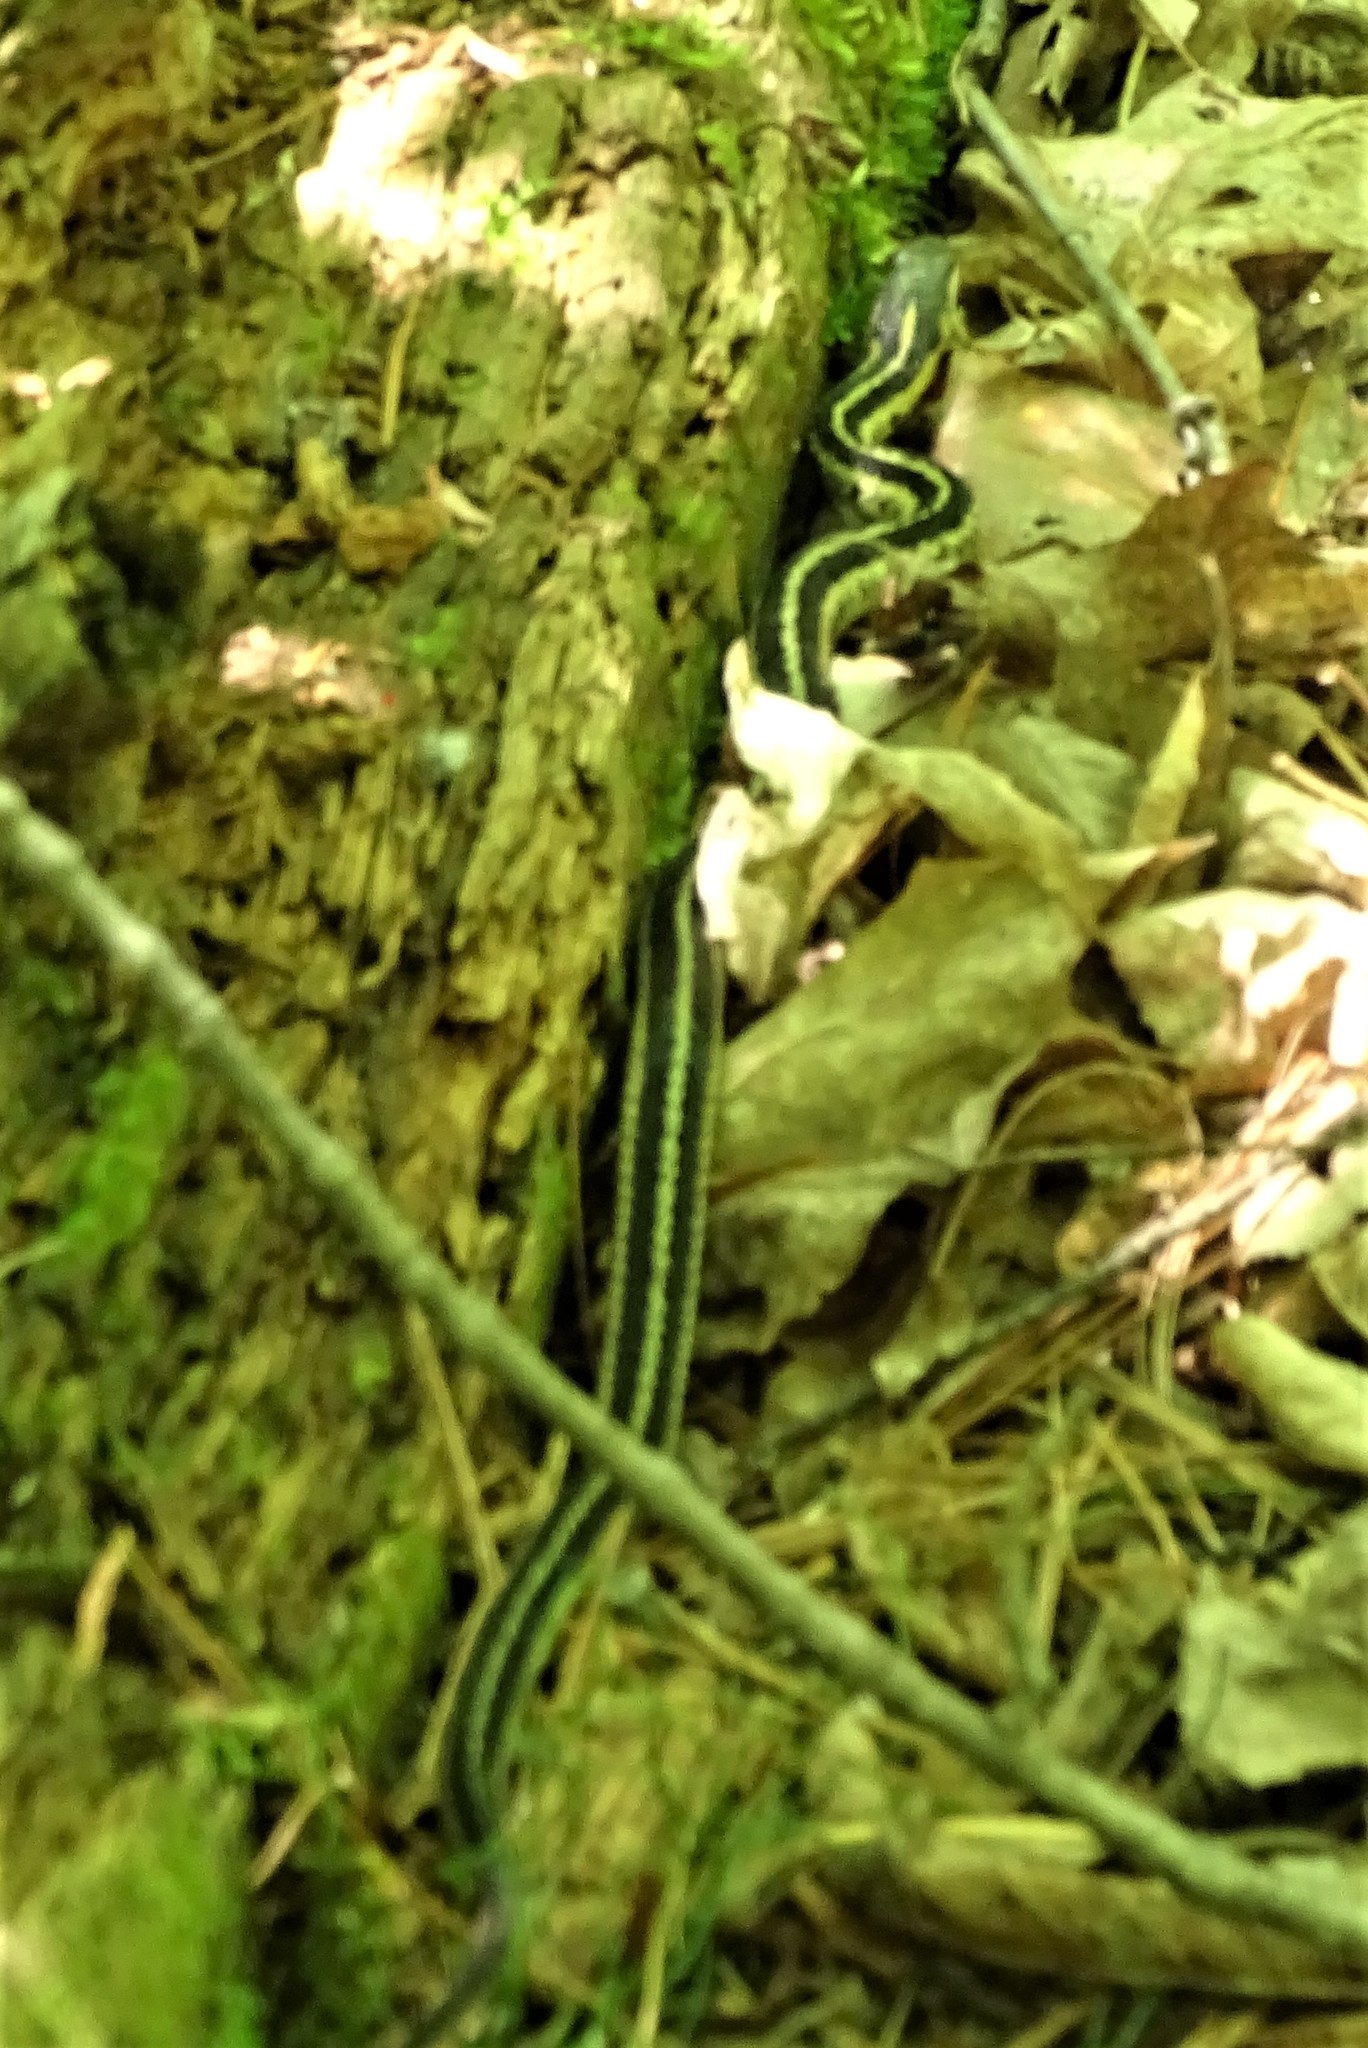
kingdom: Animalia
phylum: Chordata
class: Squamata
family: Colubridae
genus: Thamnophis
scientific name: Thamnophis sirtalis
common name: Common garter snake
